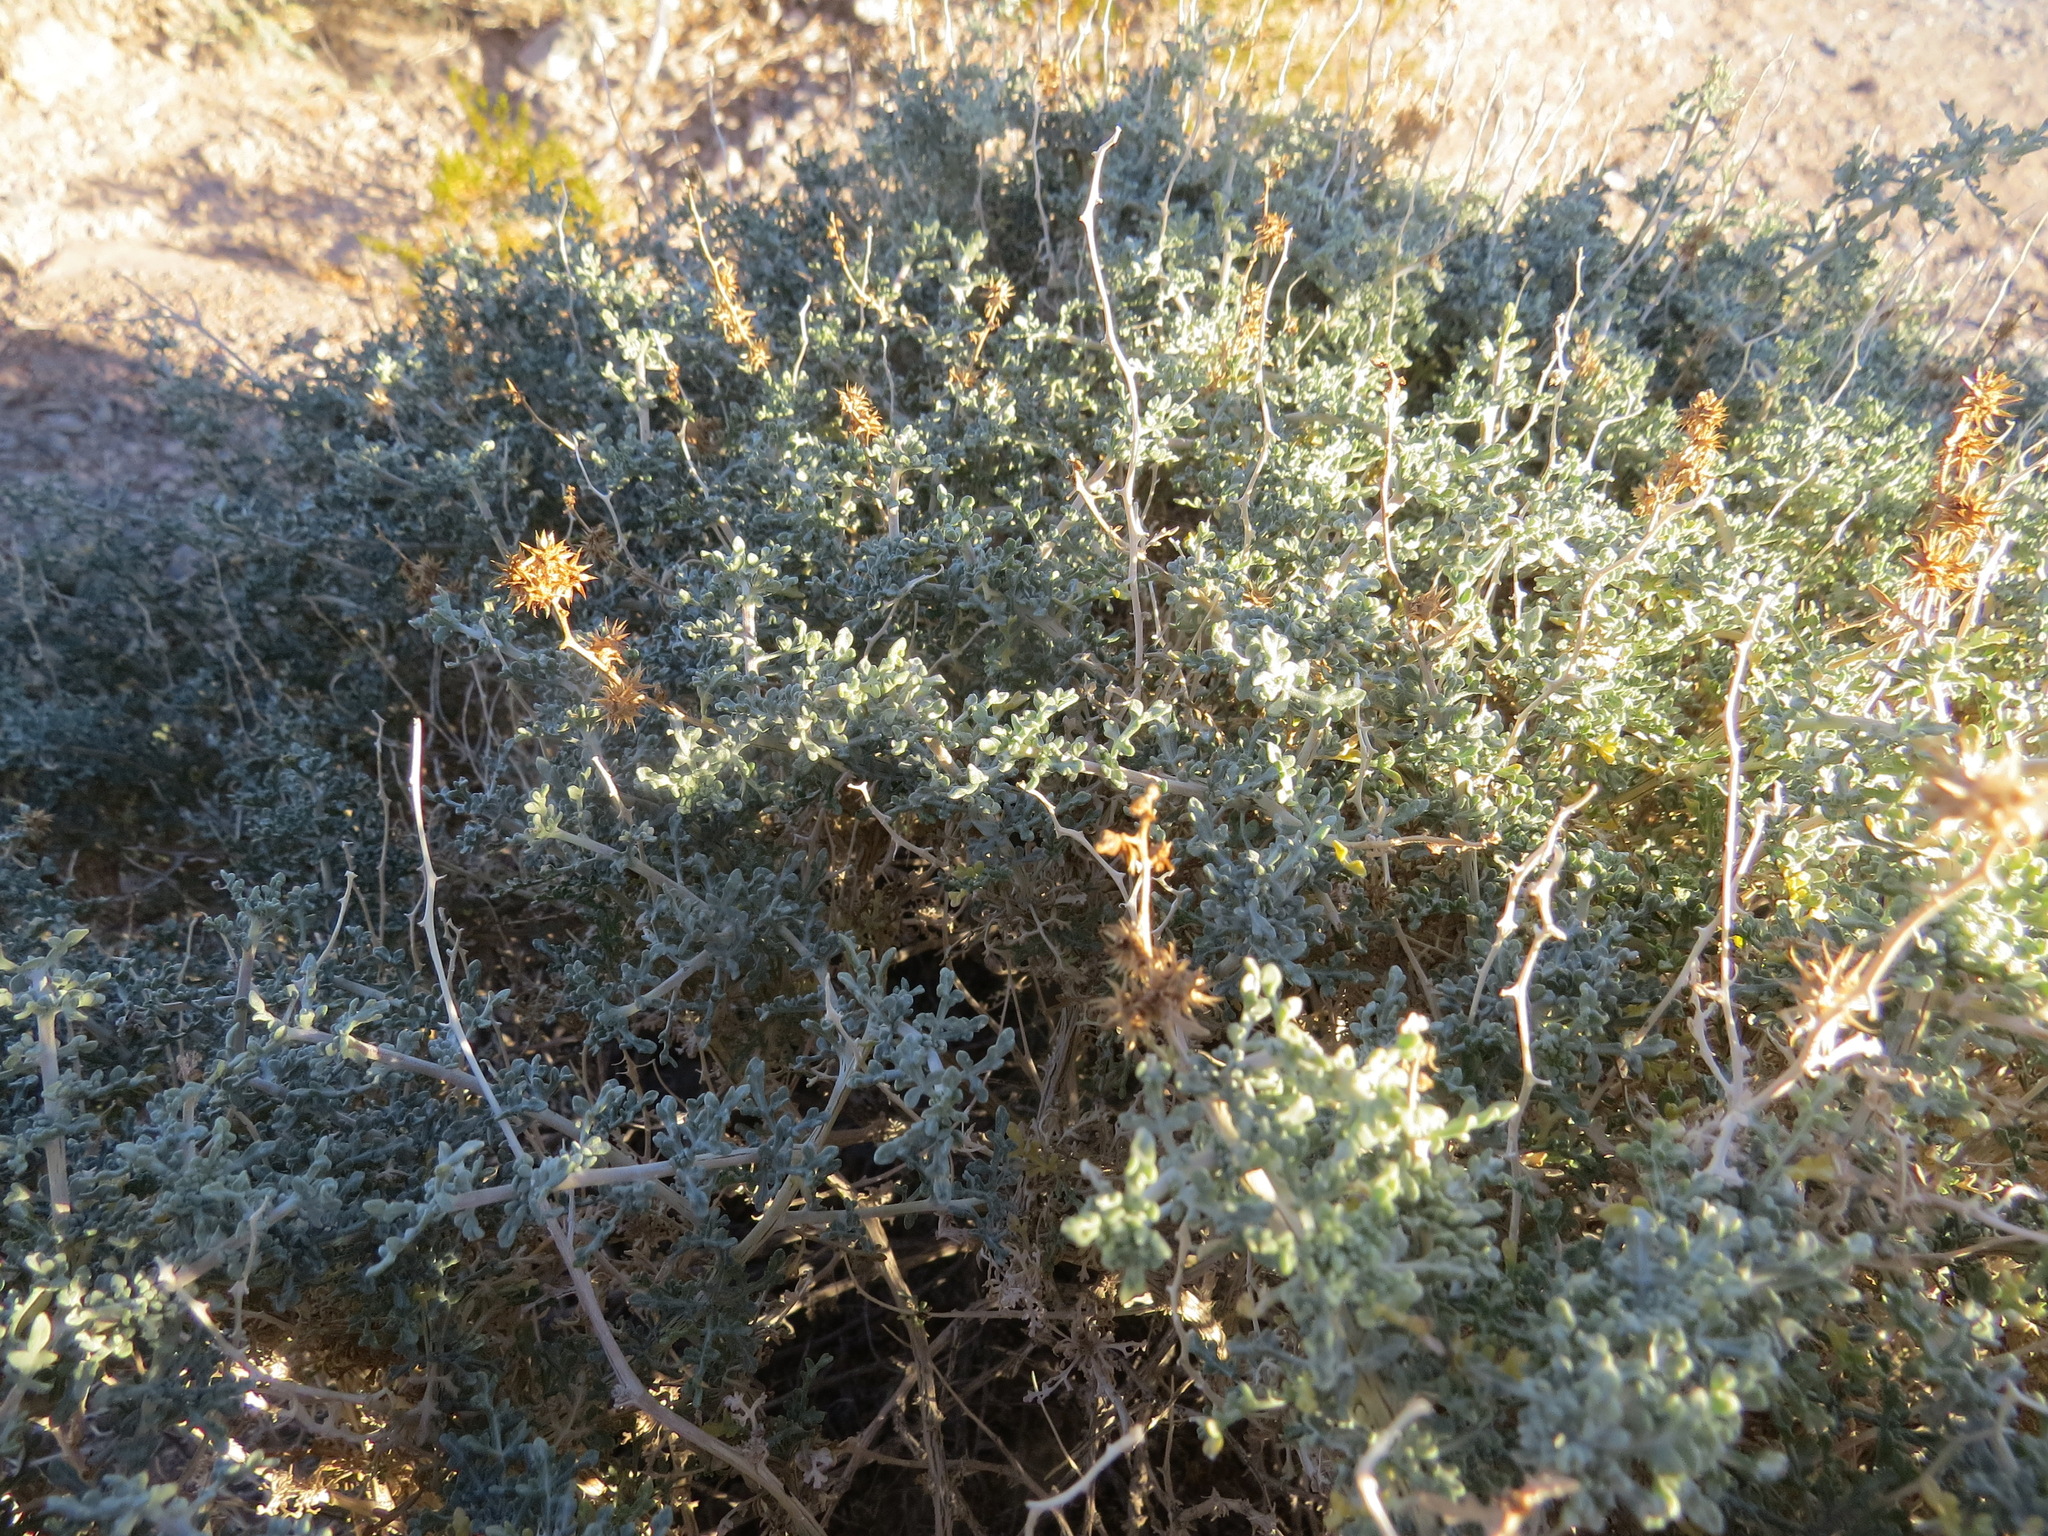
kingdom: Plantae
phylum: Tracheophyta
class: Magnoliopsida
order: Asterales
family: Asteraceae
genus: Ambrosia
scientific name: Ambrosia dumosa
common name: Bur-sage
